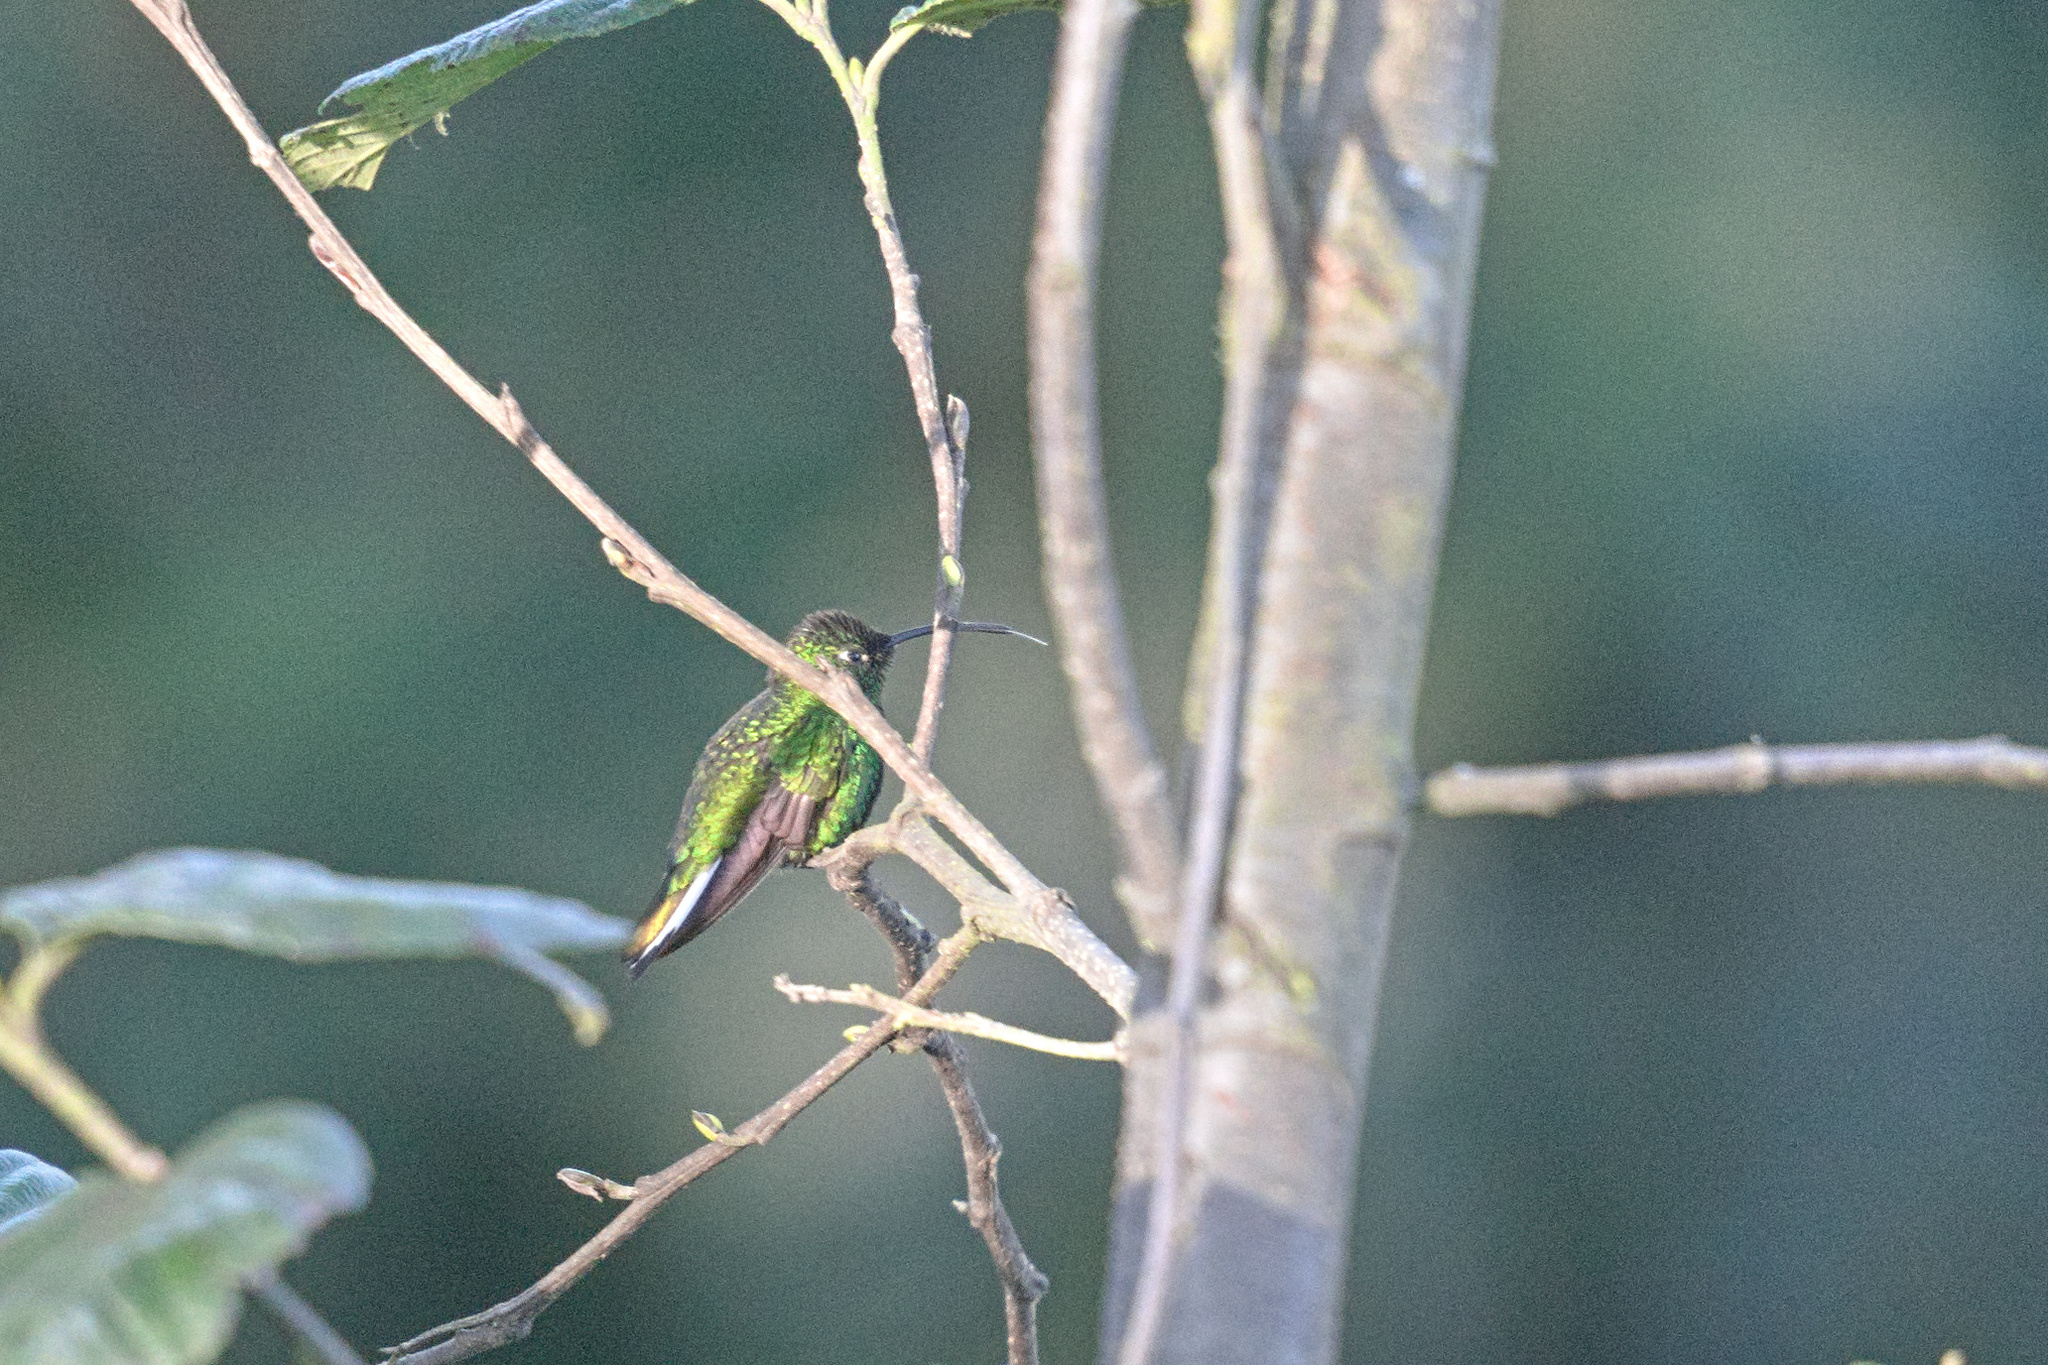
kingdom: Animalia
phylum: Chordata
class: Aves
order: Apodiformes
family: Trochilidae
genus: Lafresnaya
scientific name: Lafresnaya lafresnayi
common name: Mountain velvetbreast
